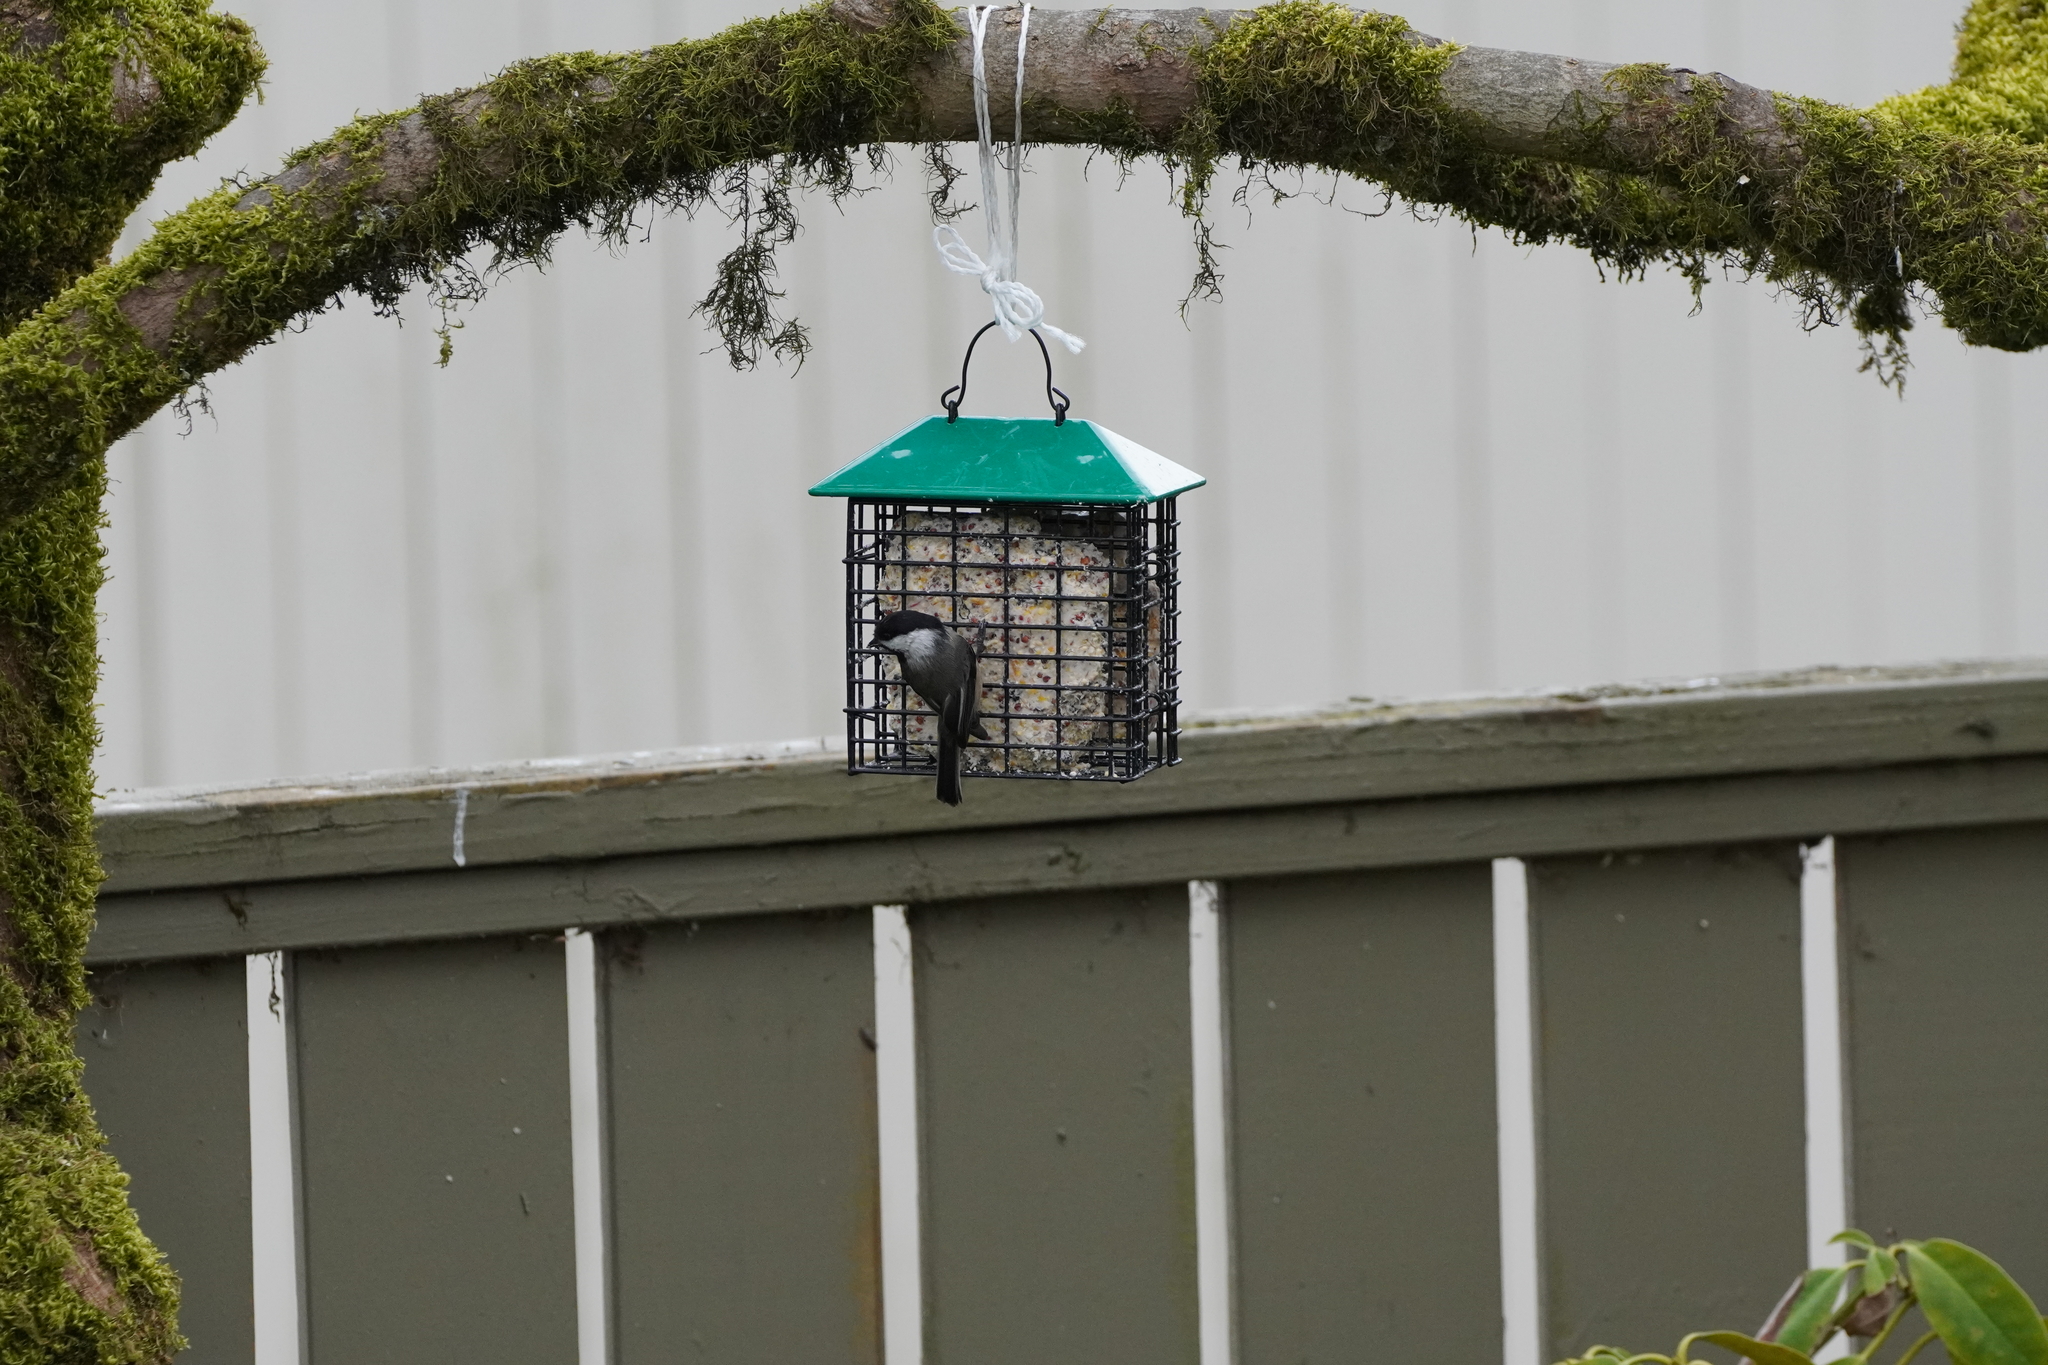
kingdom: Animalia
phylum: Chordata
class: Aves
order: Passeriformes
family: Paridae
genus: Poecile
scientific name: Poecile atricapillus
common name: Black-capped chickadee
